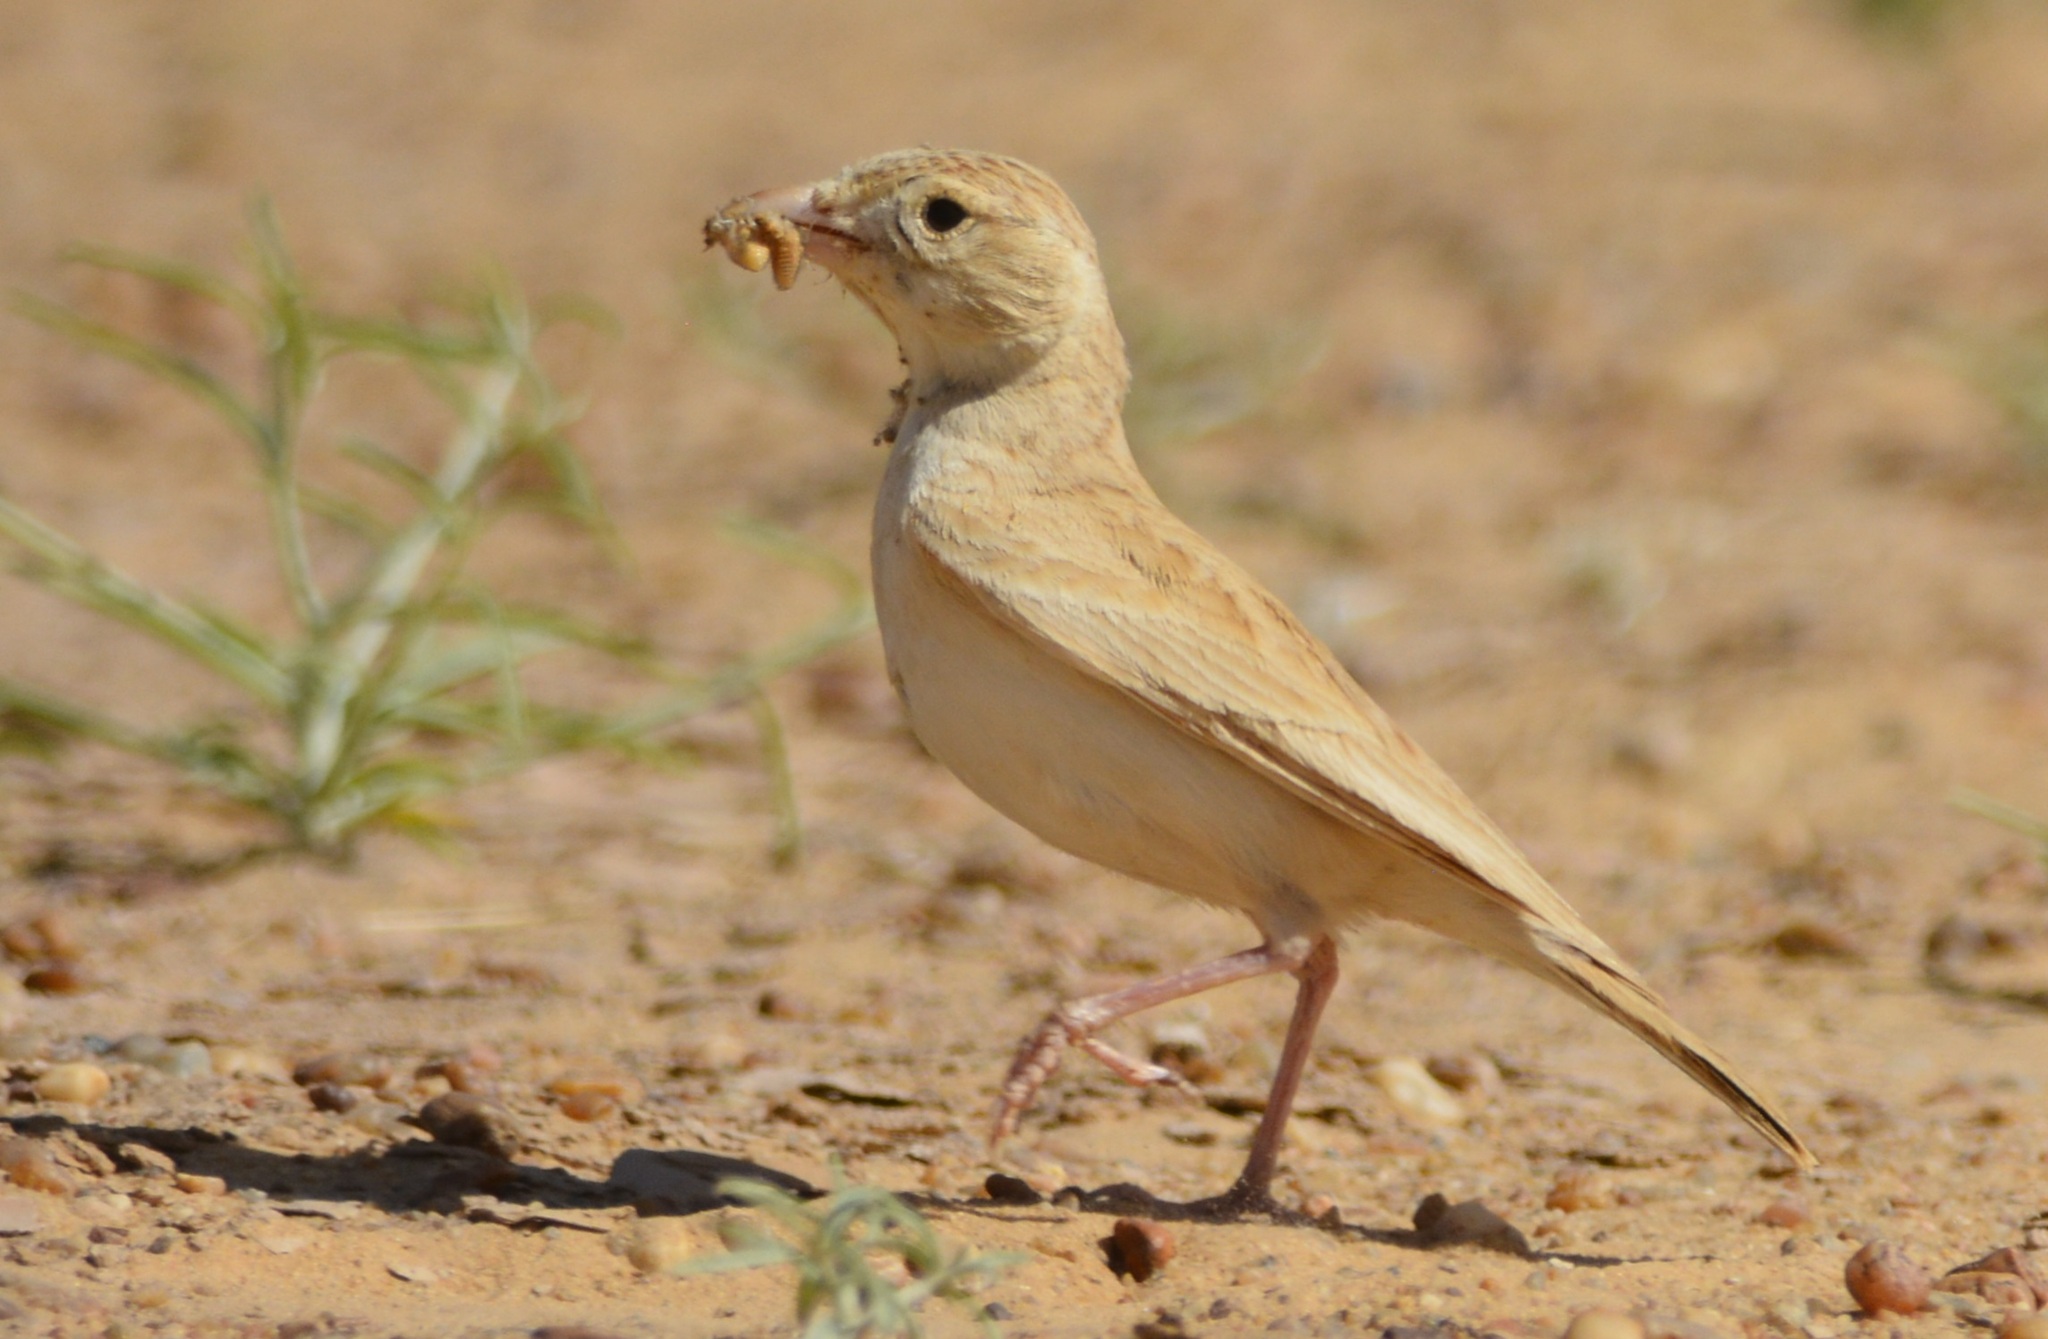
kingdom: Animalia
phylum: Chordata
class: Aves
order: Passeriformes
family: Alaudidae
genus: Eremalauda
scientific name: Eremalauda dunni
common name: Dunn's lark
